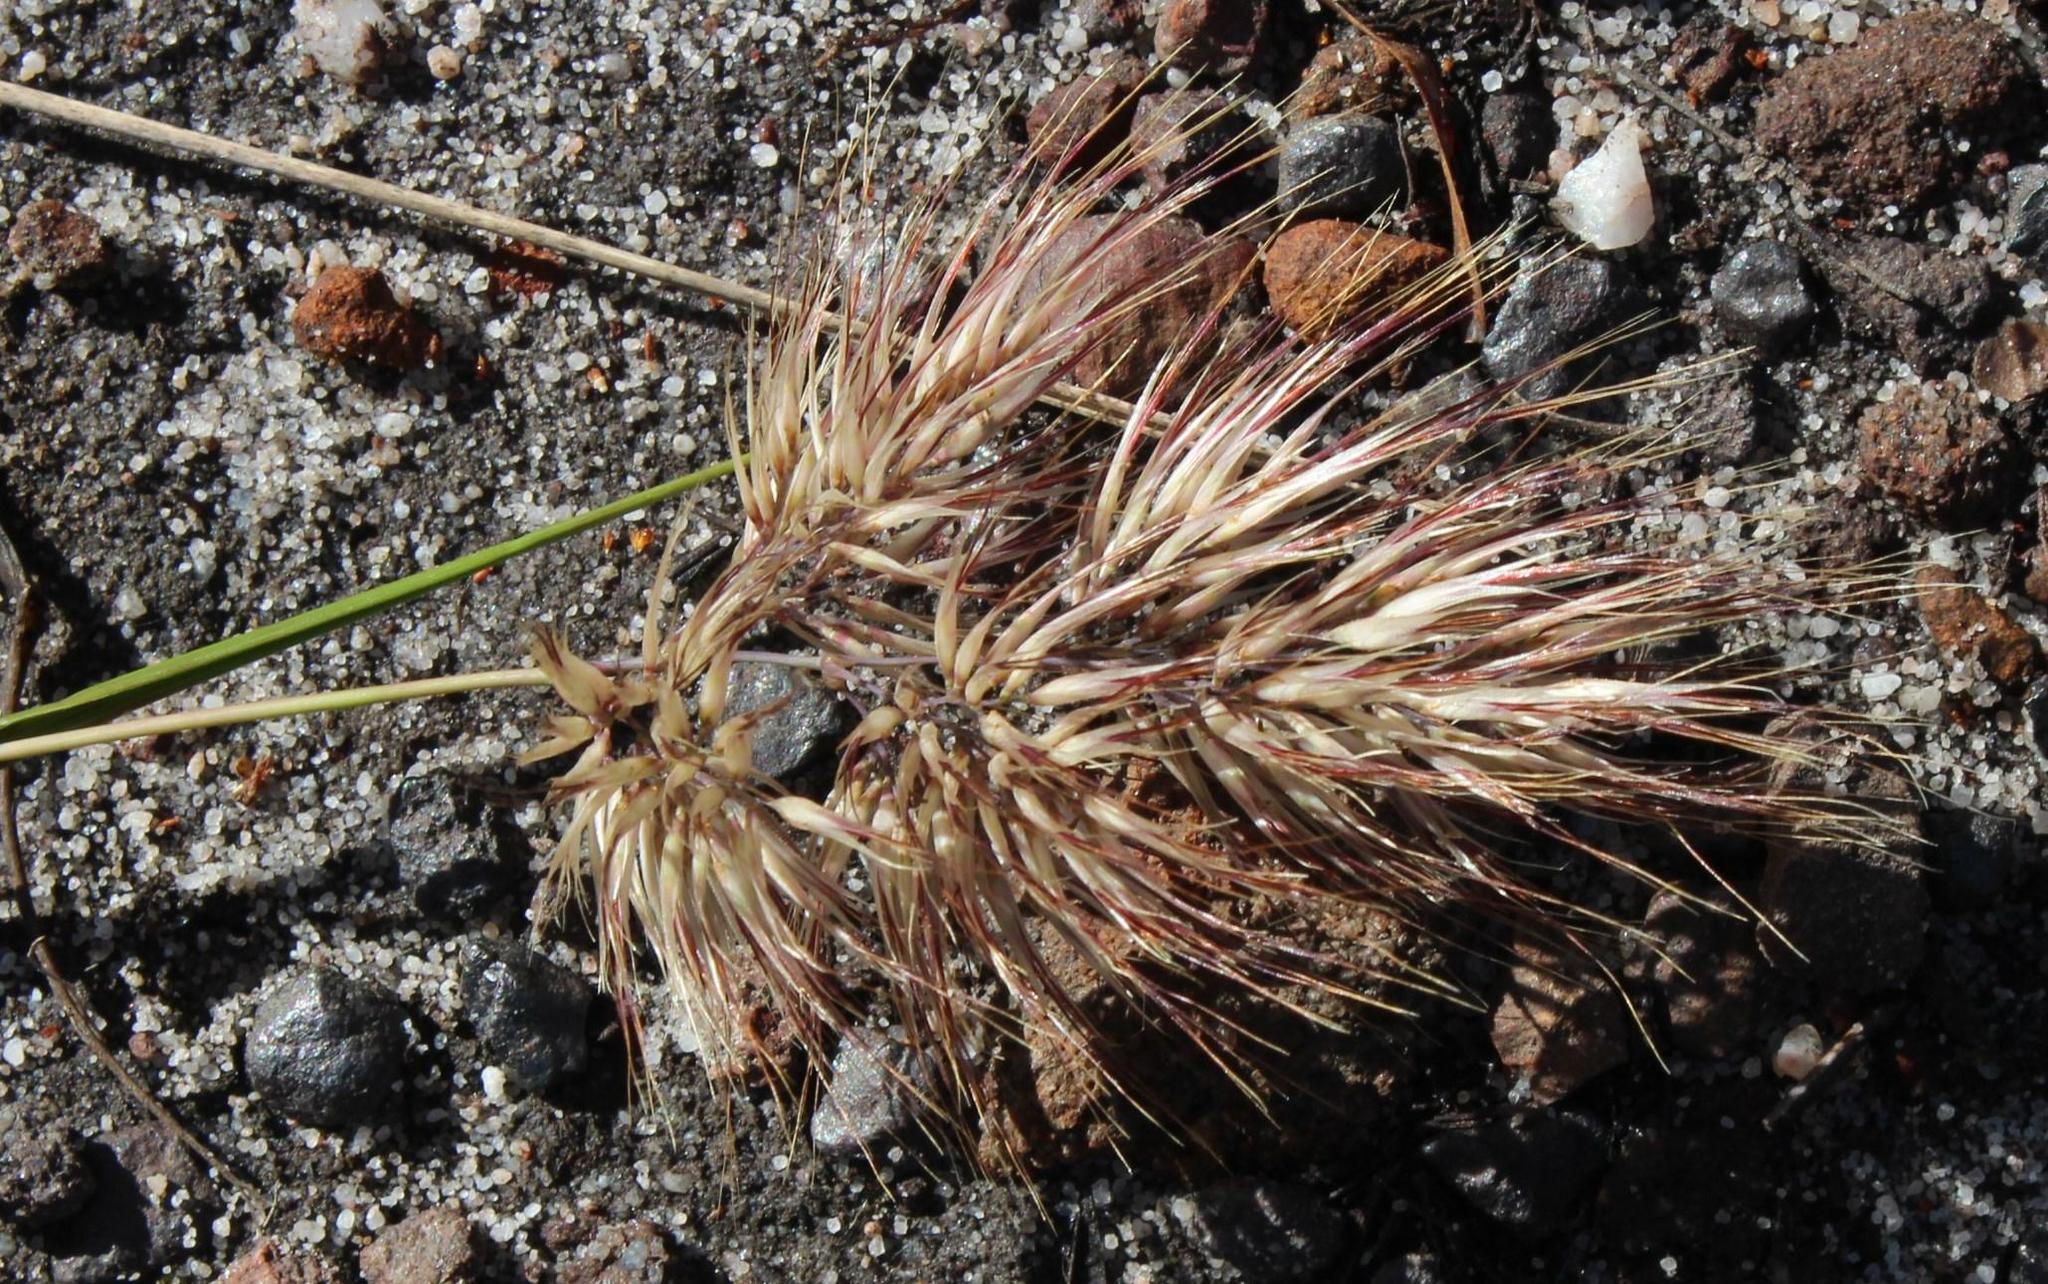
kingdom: Plantae
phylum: Tracheophyta
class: Liliopsida
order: Poales
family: Poaceae
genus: Pentameris
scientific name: Pentameris curvifolia
